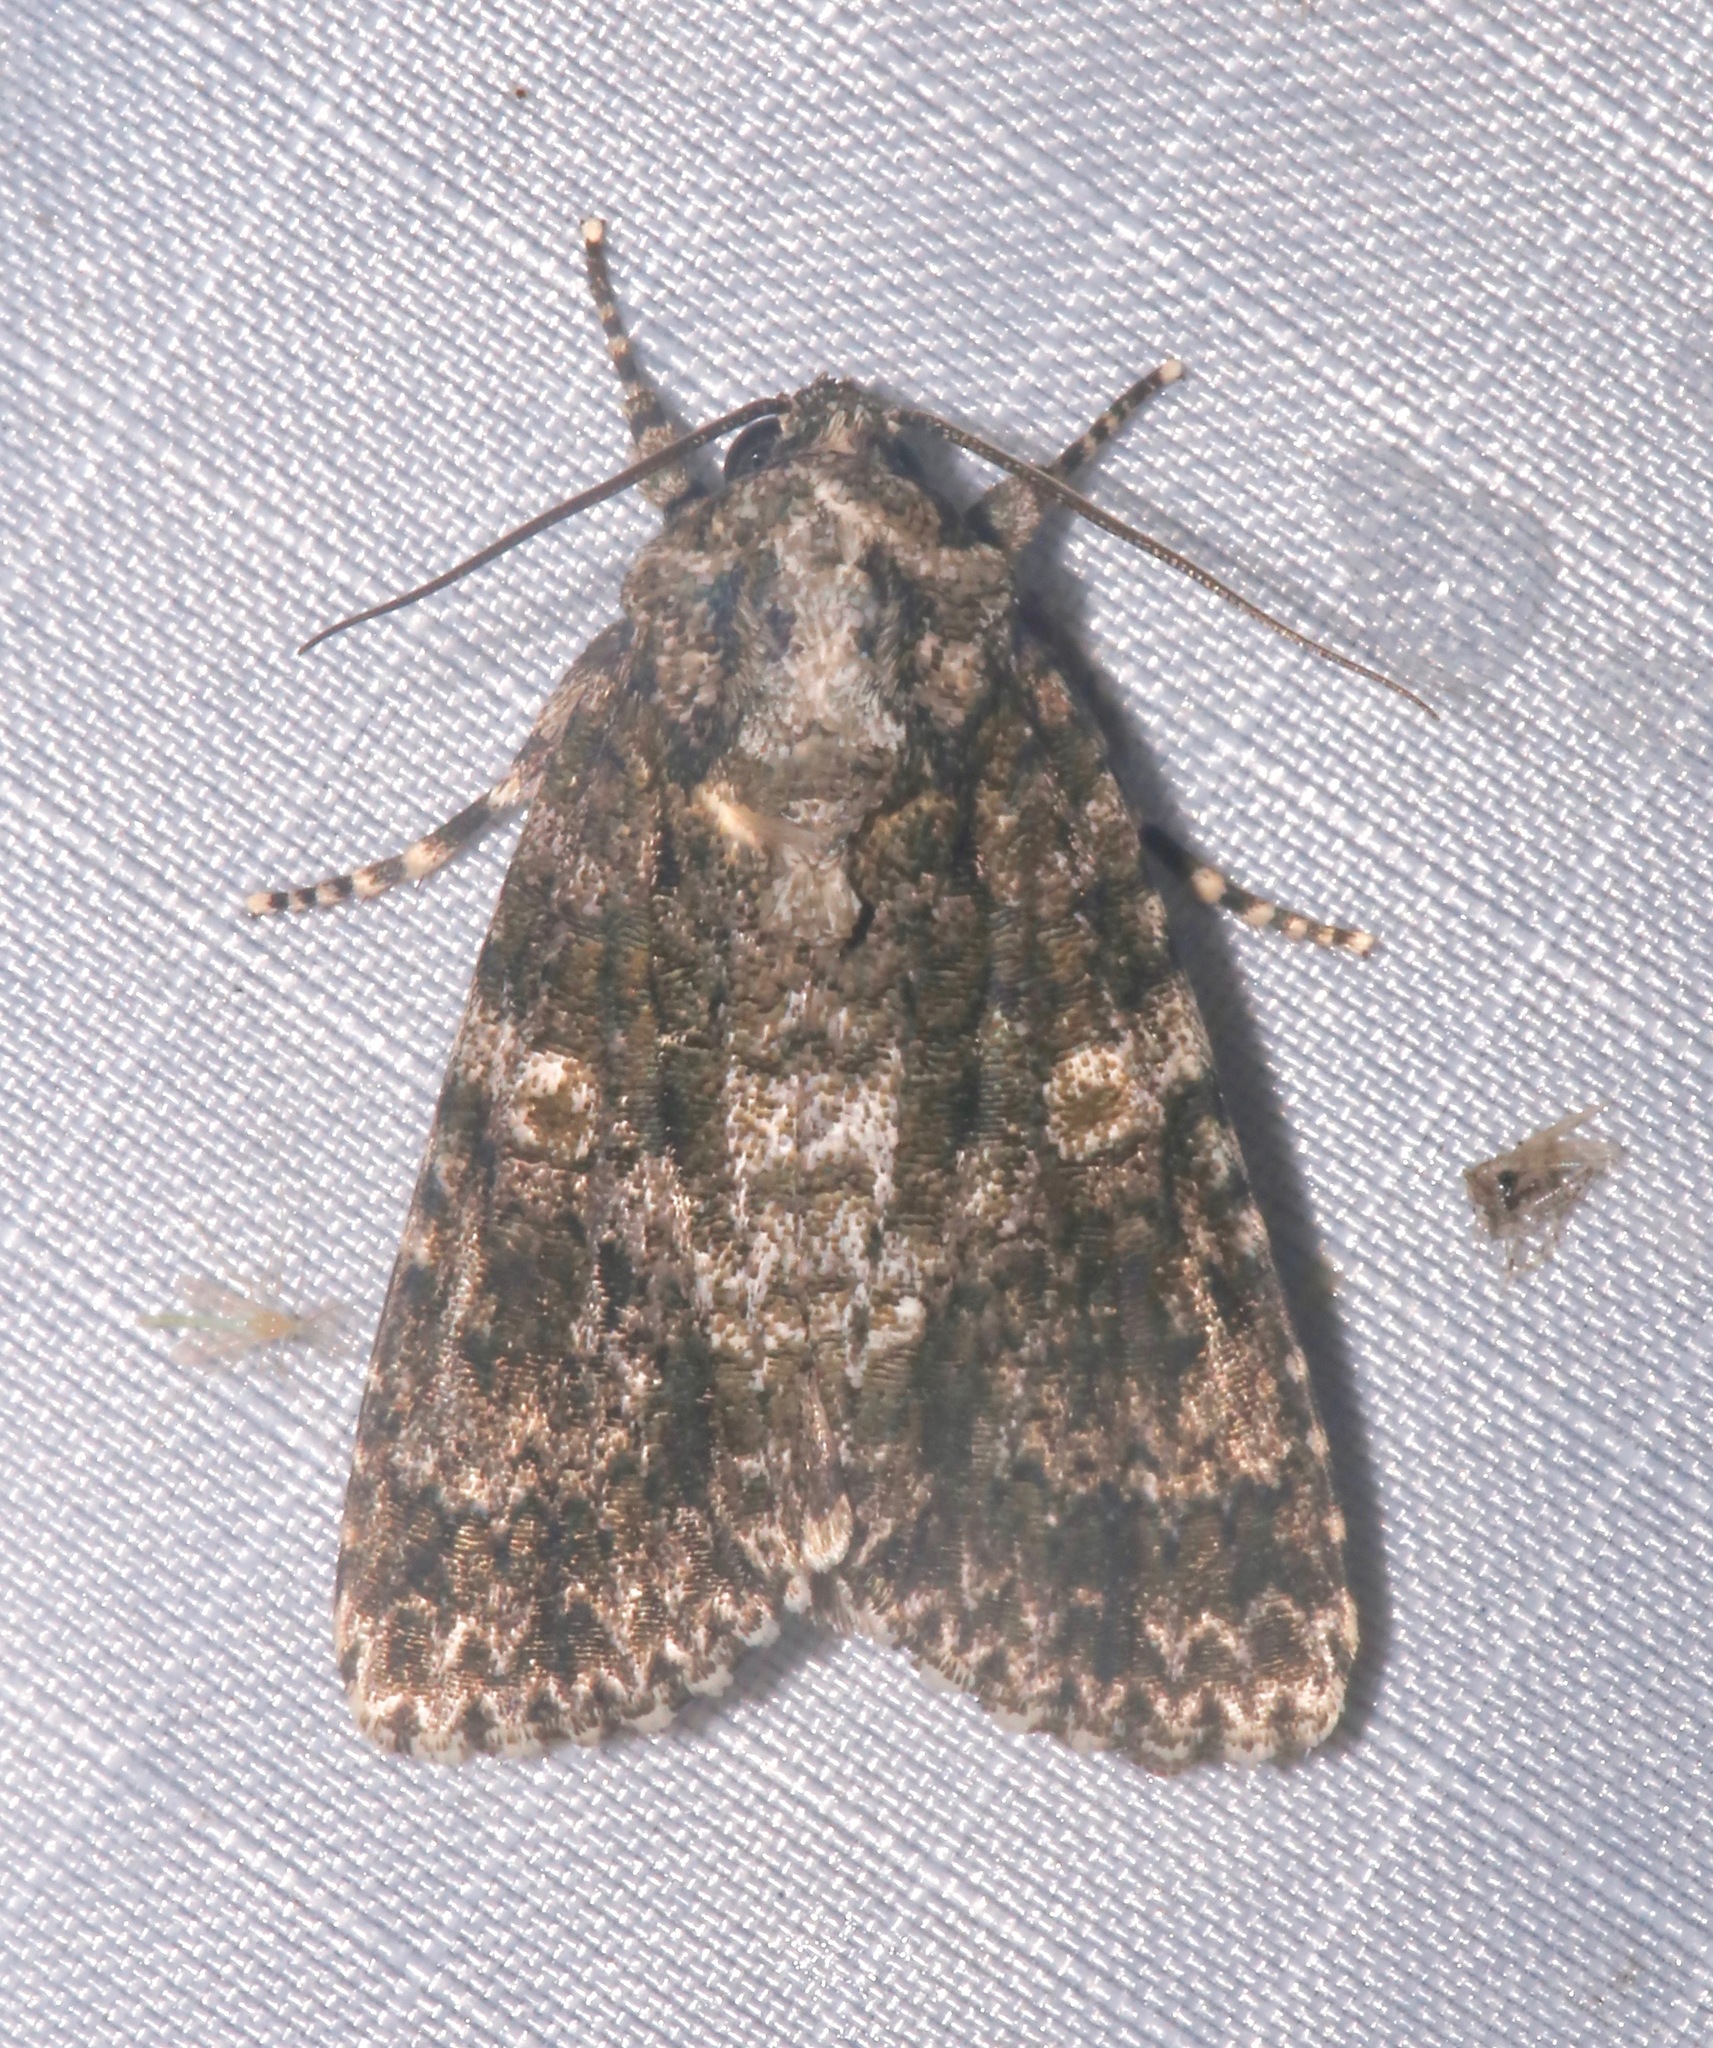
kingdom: Animalia
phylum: Arthropoda
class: Insecta
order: Lepidoptera
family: Noctuidae
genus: Acronicta
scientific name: Acronicta afflicta
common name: Afflicted dagger moth
